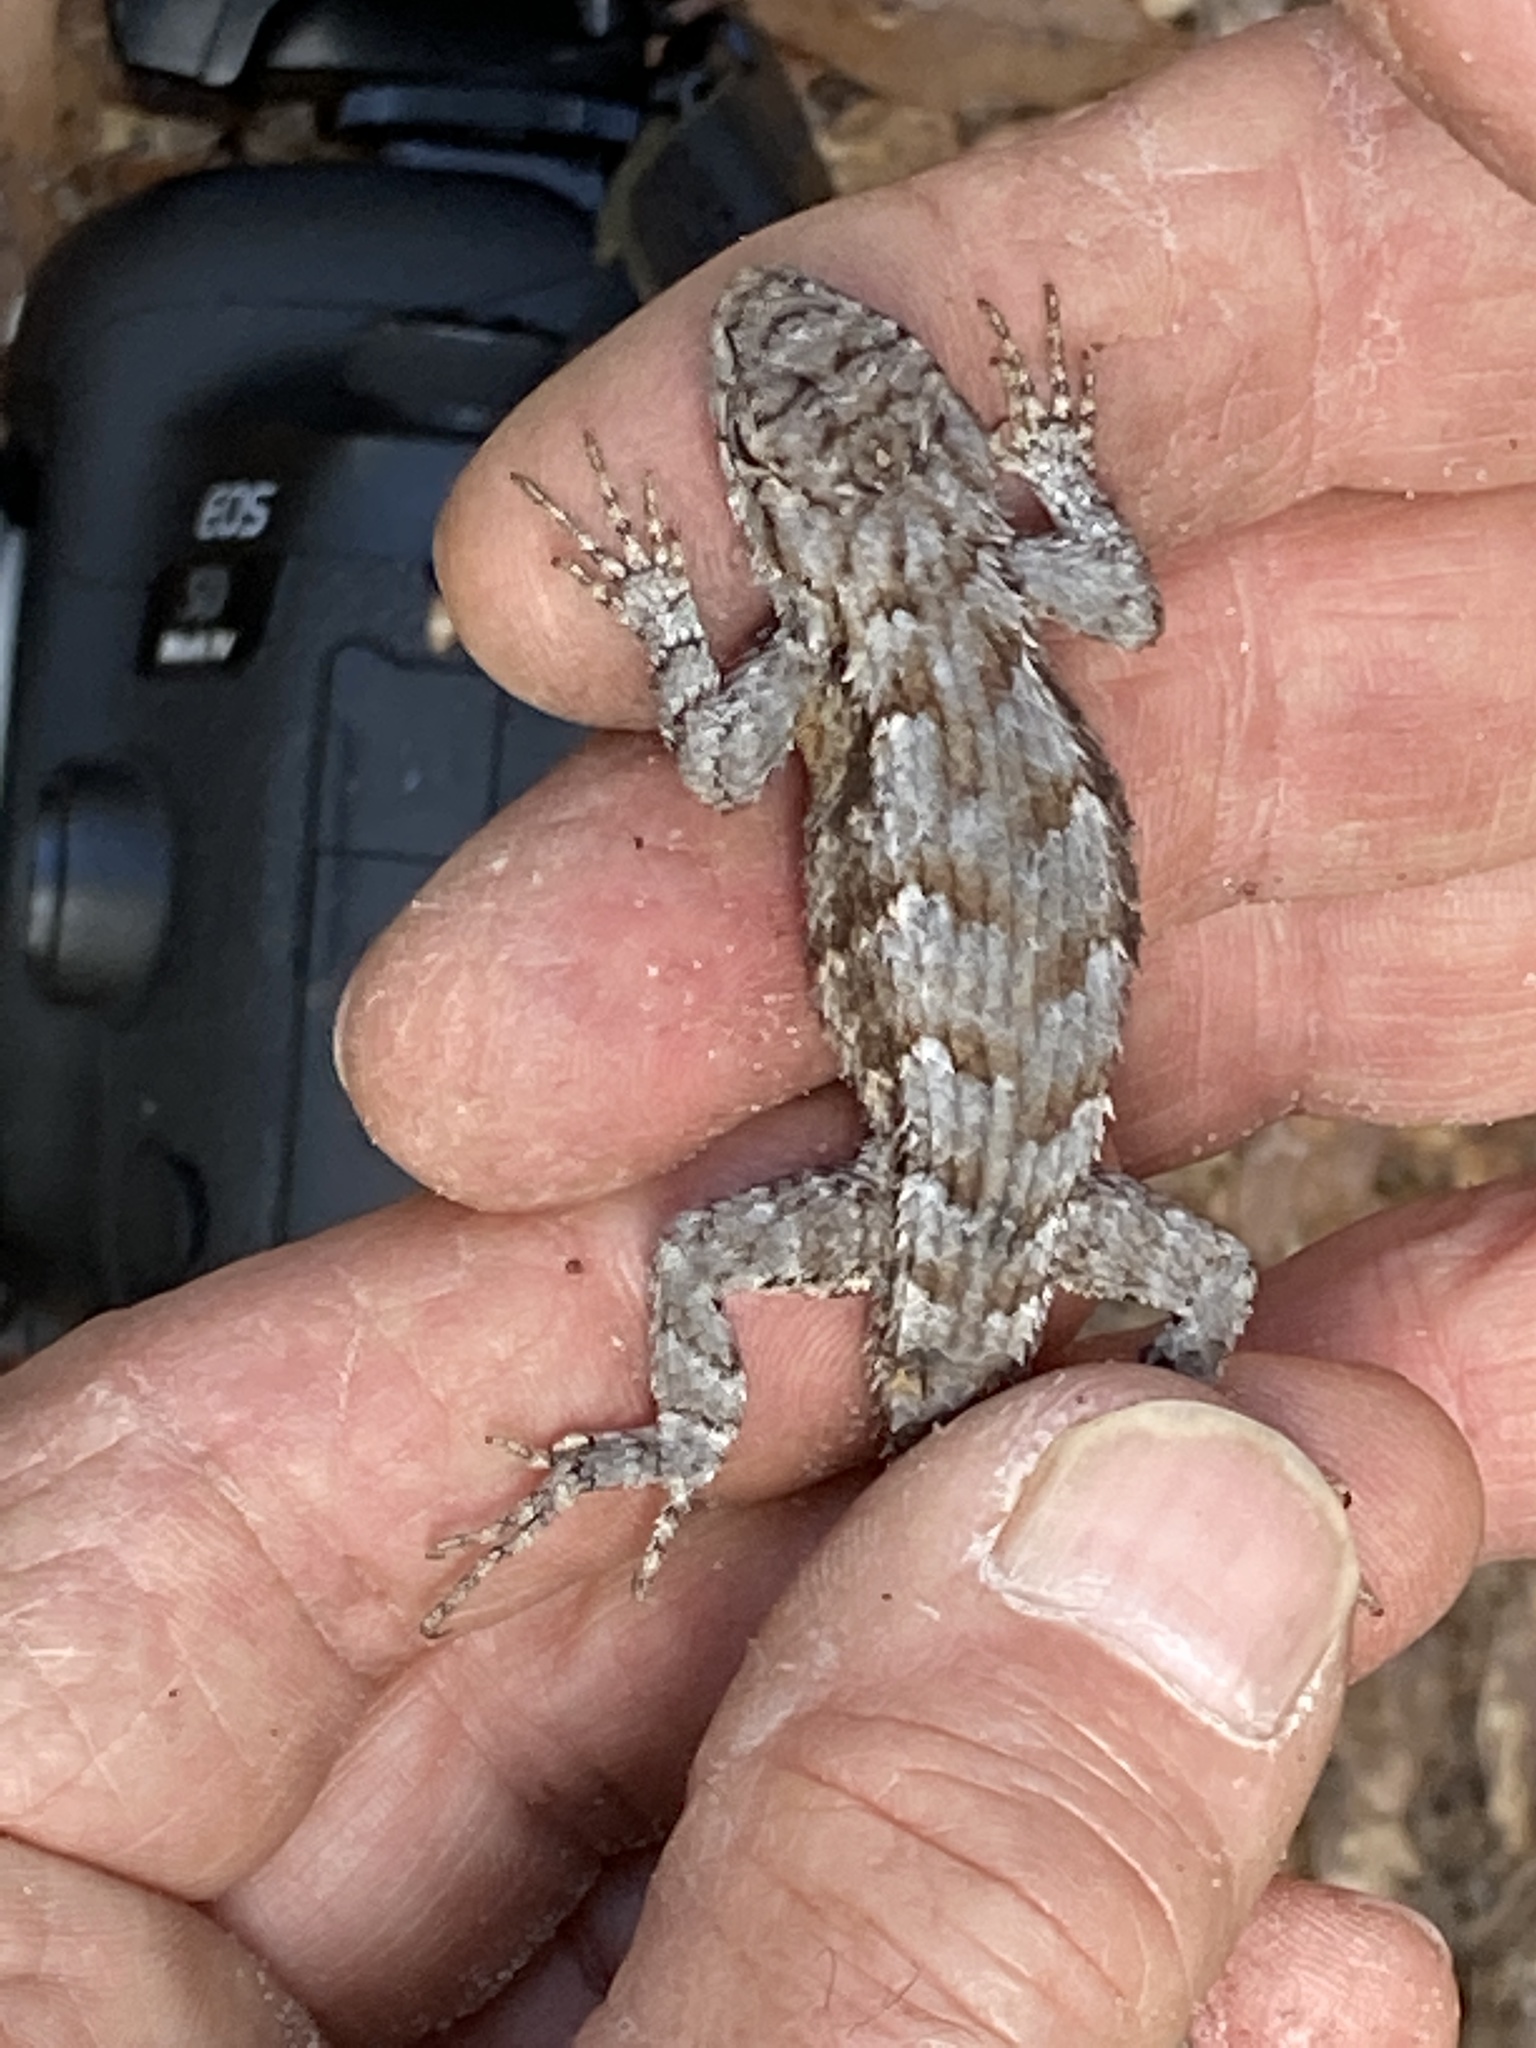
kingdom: Animalia
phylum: Chordata
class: Squamata
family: Phrynosomatidae
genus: Sceloporus
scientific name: Sceloporus undulatus
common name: Eastern fence lizard
